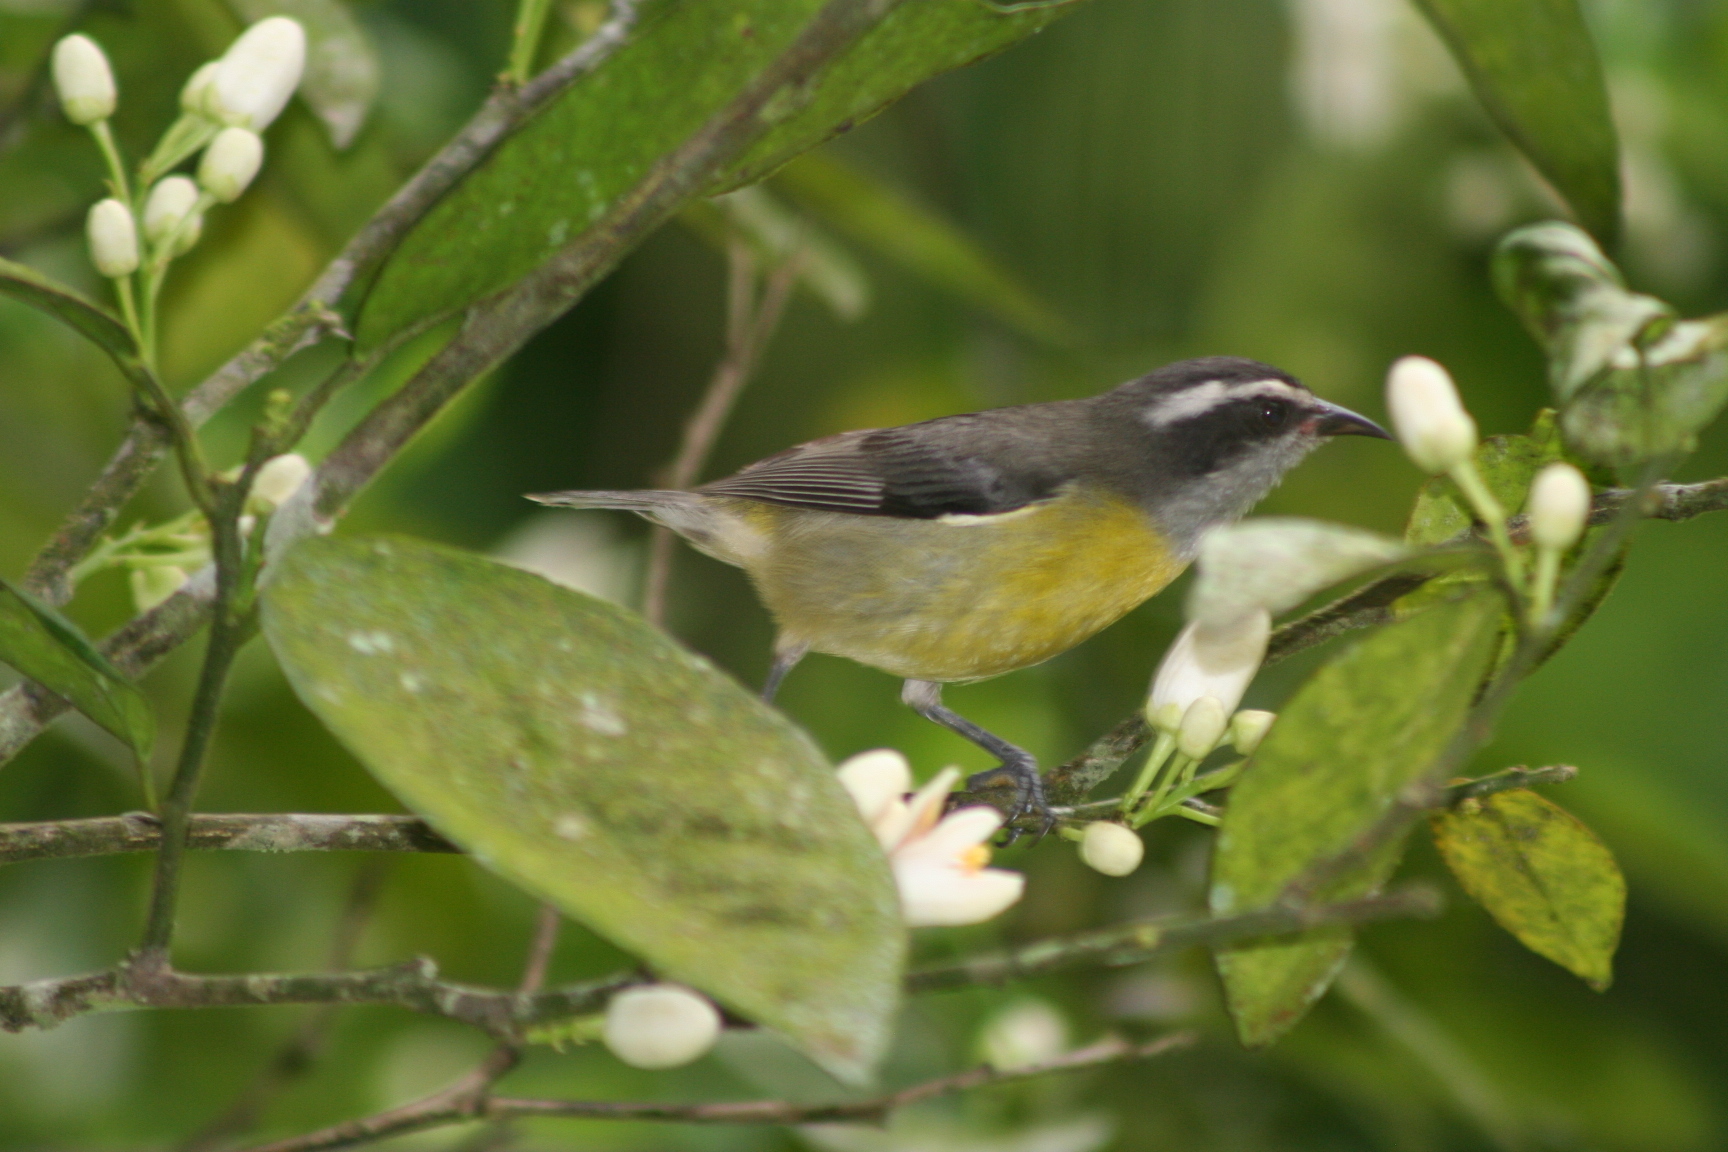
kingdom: Animalia
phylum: Chordata
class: Aves
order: Passeriformes
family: Thraupidae
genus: Coereba
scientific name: Coereba flaveola
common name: Bananaquit
